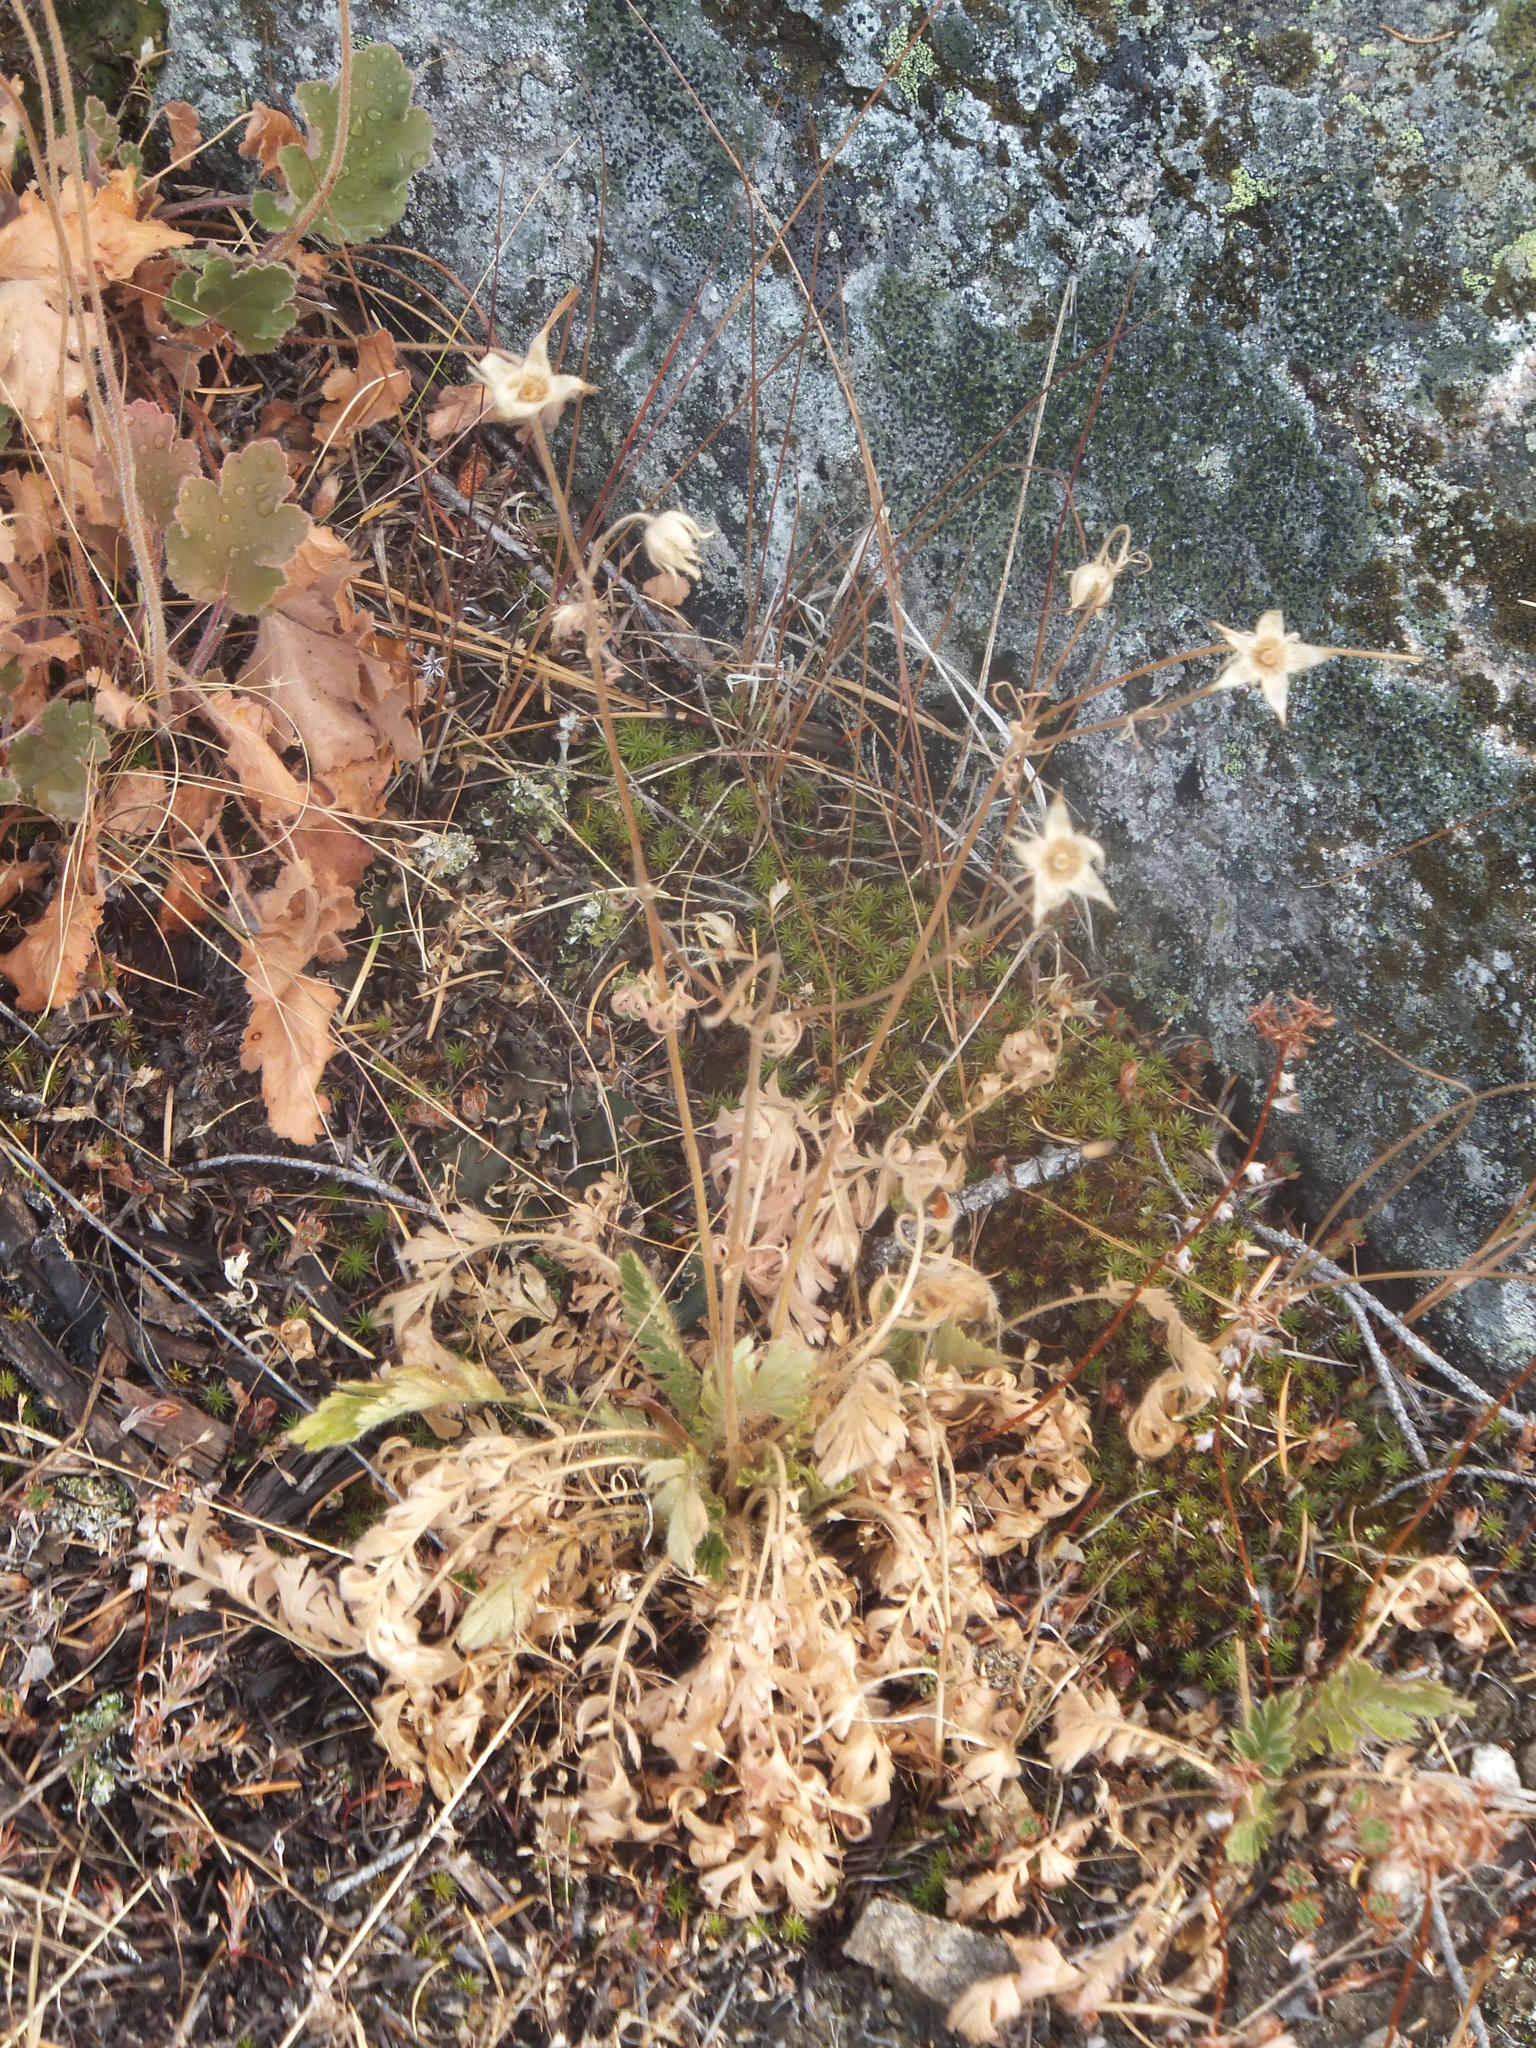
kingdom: Plantae
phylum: Tracheophyta
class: Magnoliopsida
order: Rosales
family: Rosaceae
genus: Geum
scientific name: Geum triflorum
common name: Old man's whiskers
